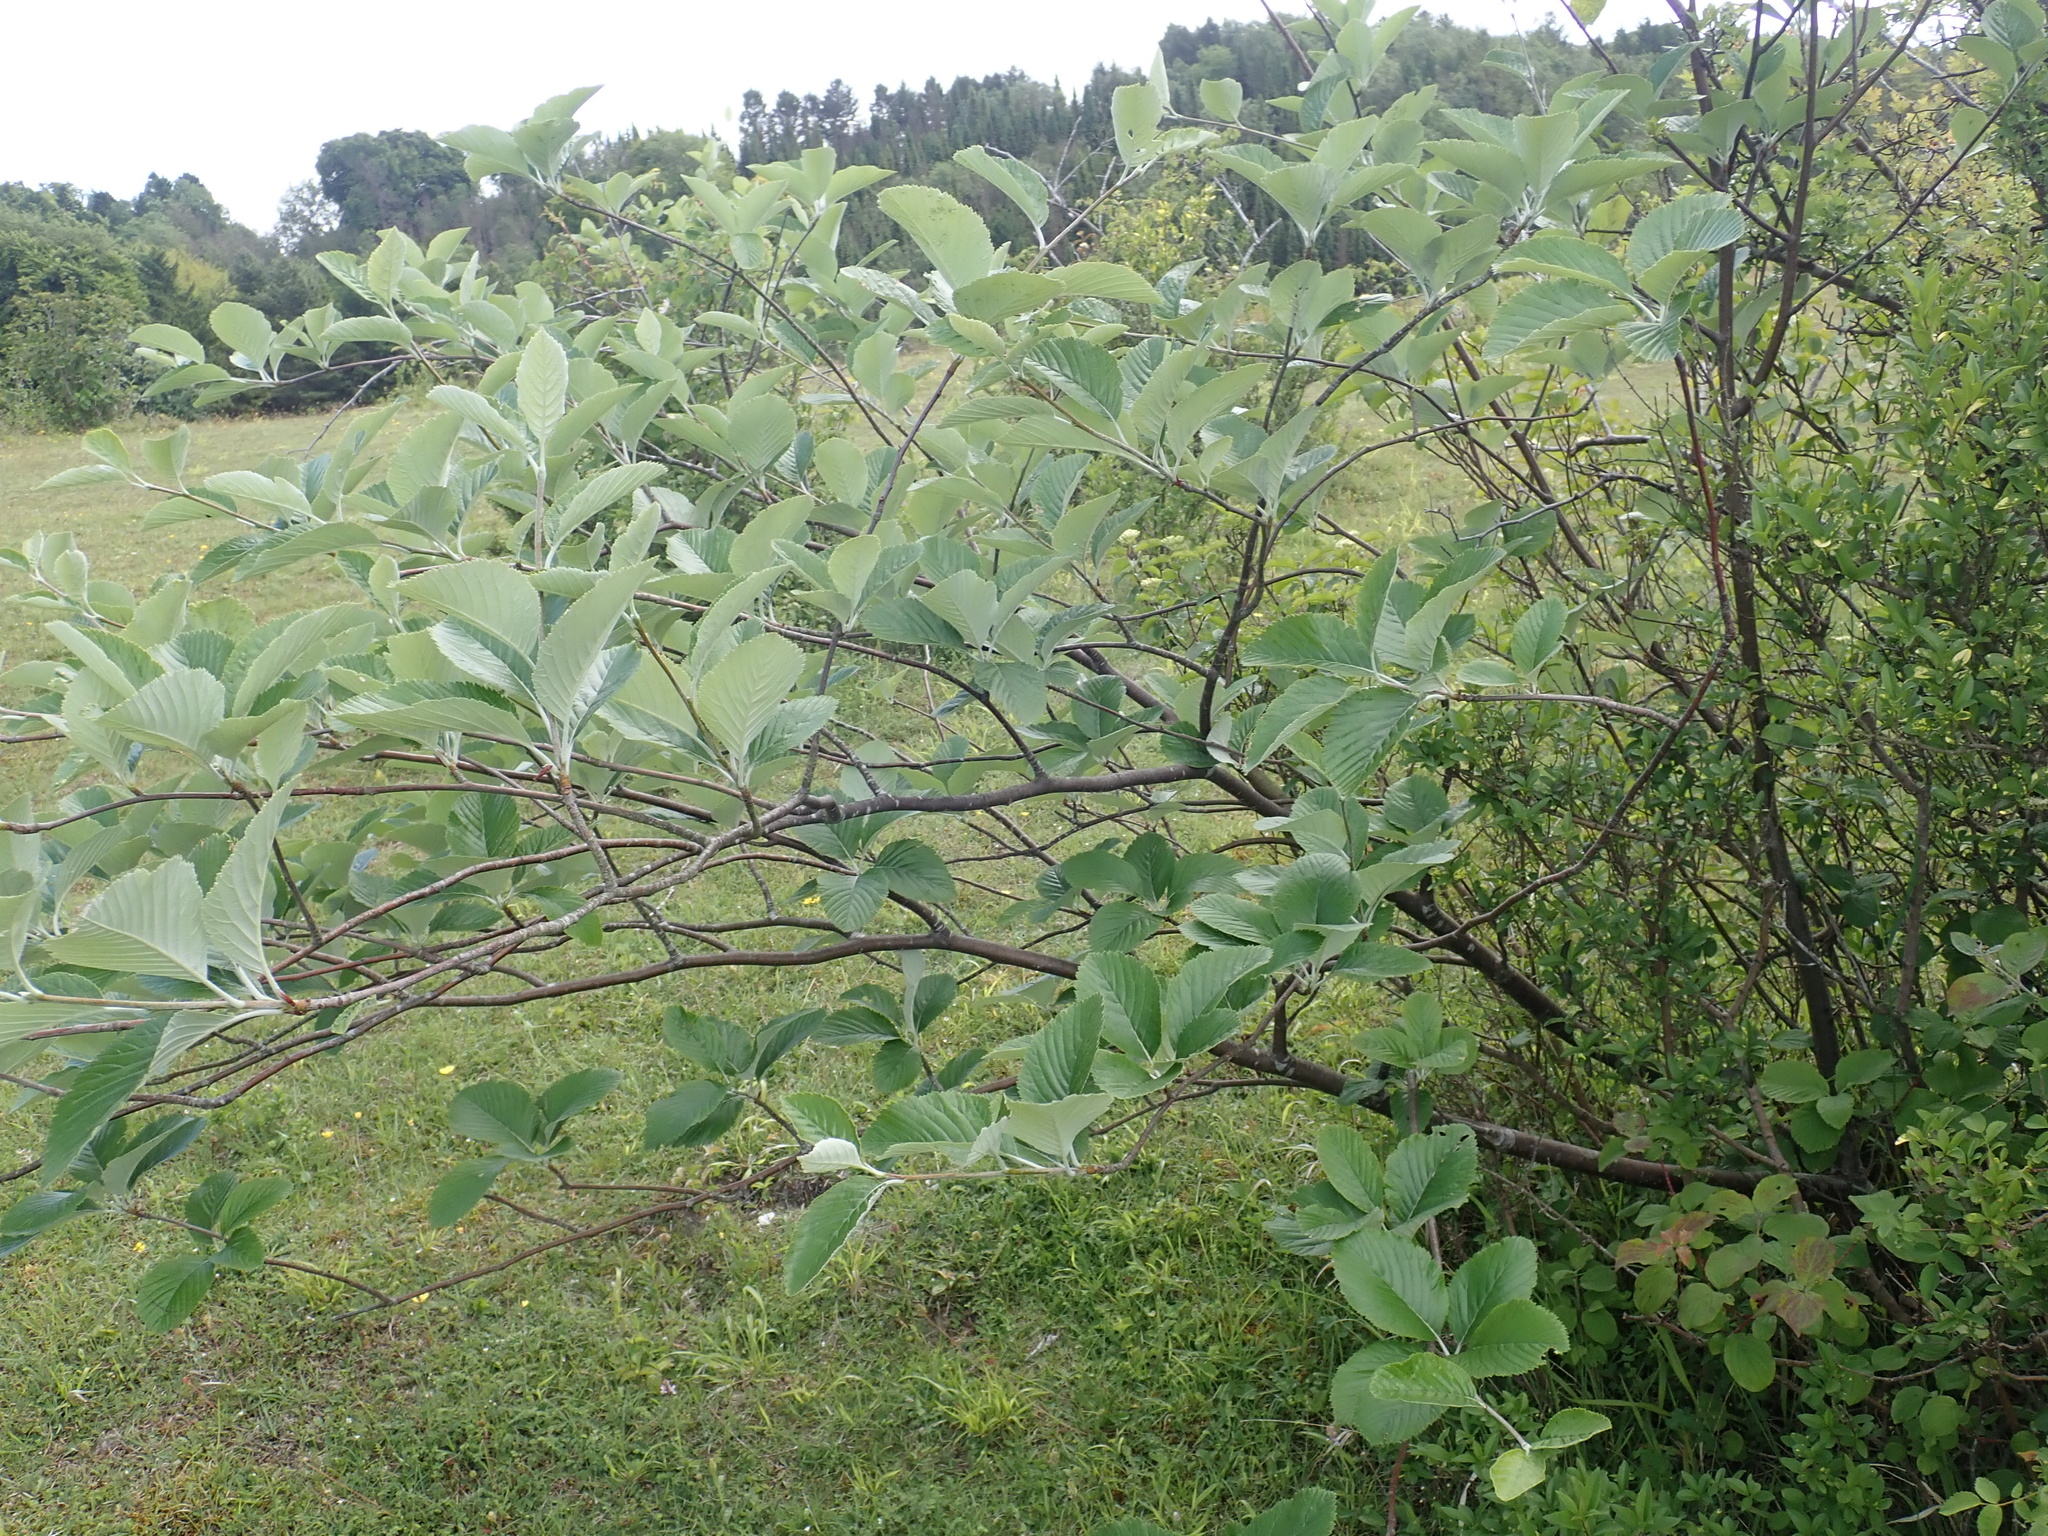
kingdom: Plantae
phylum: Tracheophyta
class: Magnoliopsida
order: Rosales
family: Rosaceae
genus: Aria
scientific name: Aria edulis
